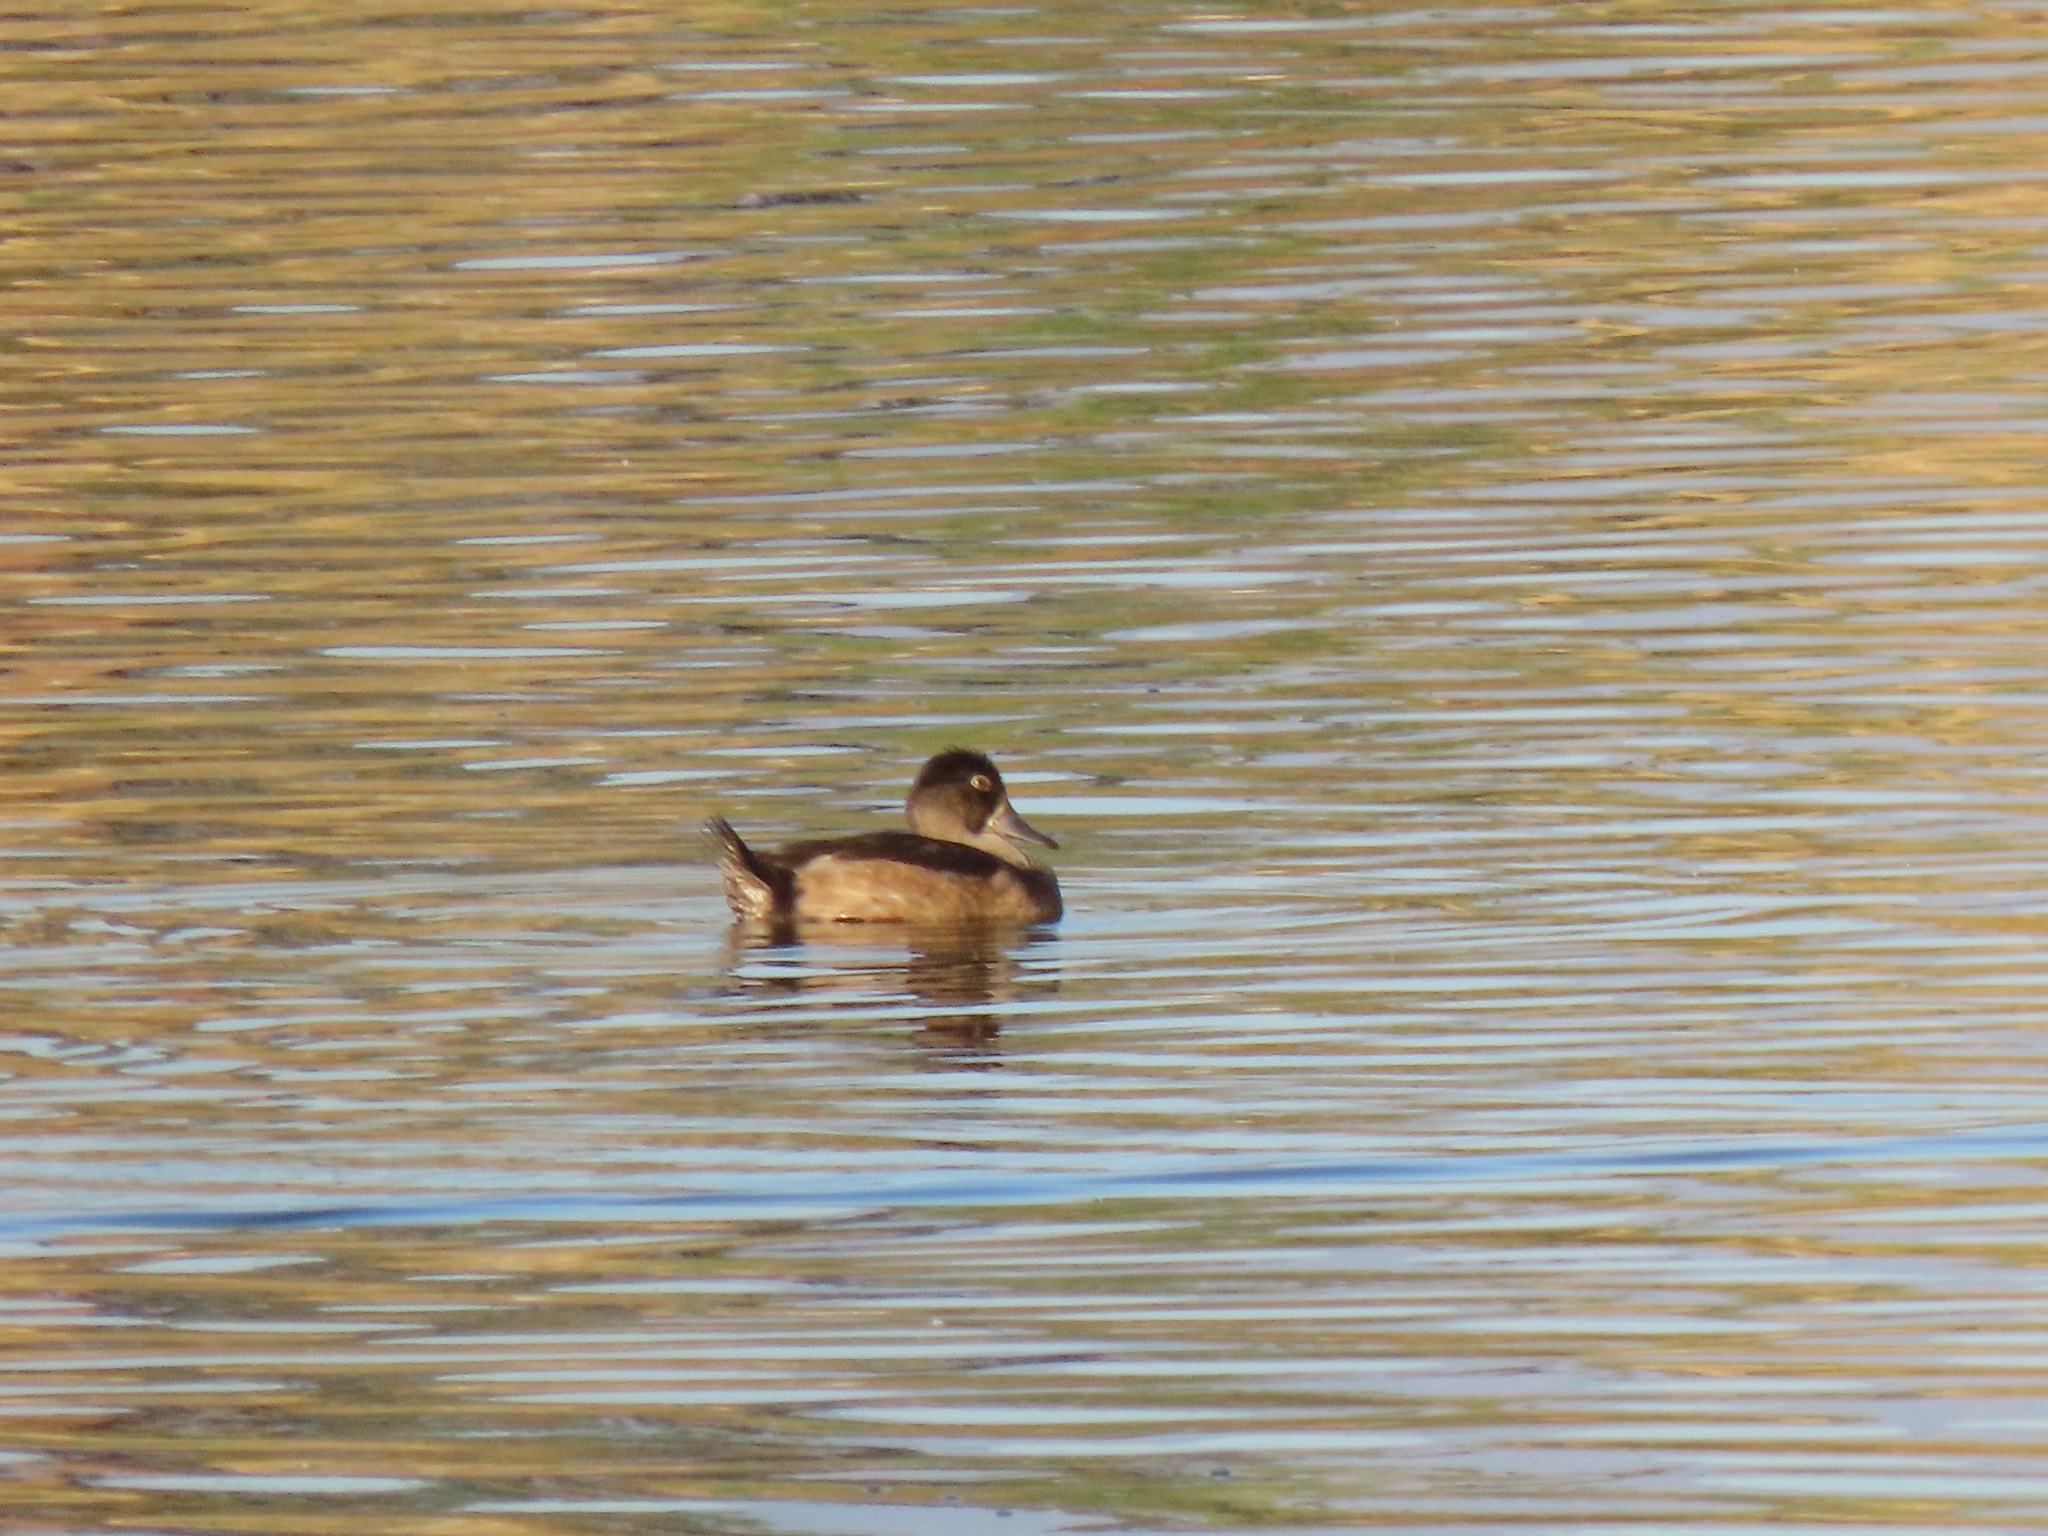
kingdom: Animalia
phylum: Chordata
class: Aves
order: Anseriformes
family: Anatidae
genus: Aythya
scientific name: Aythya collaris
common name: Ring-necked duck
